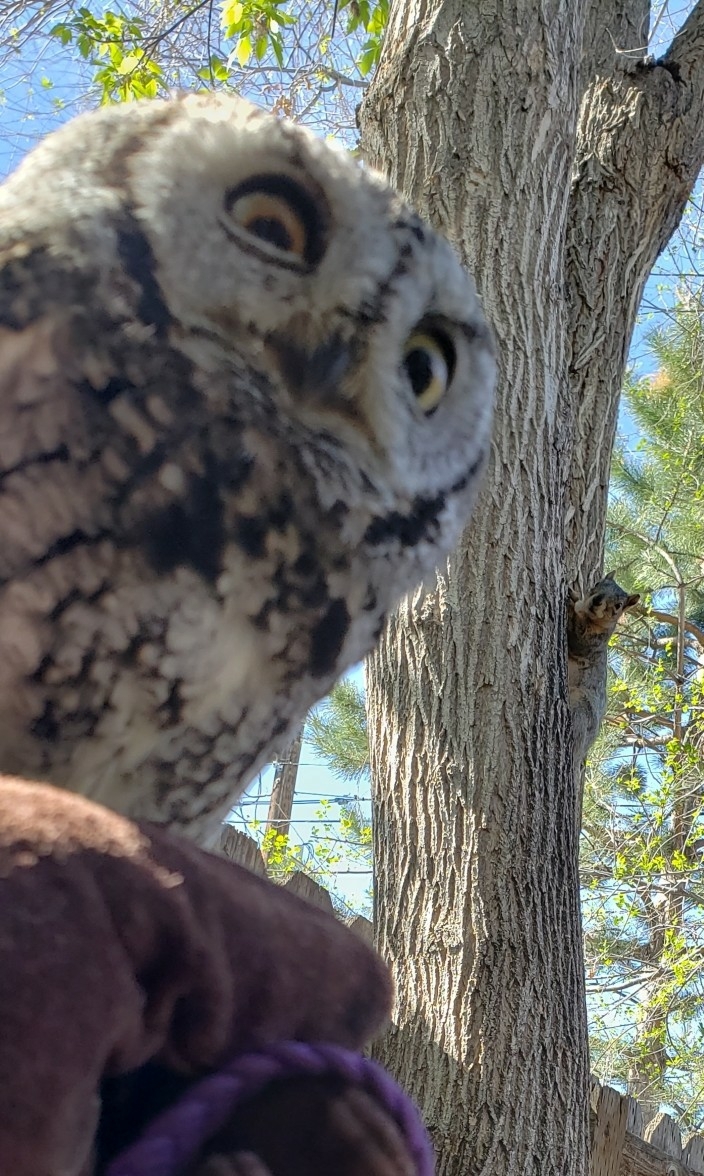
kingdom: Animalia
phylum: Chordata
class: Mammalia
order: Rodentia
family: Sciuridae
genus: Sciurus
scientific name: Sciurus niger
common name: Fox squirrel
